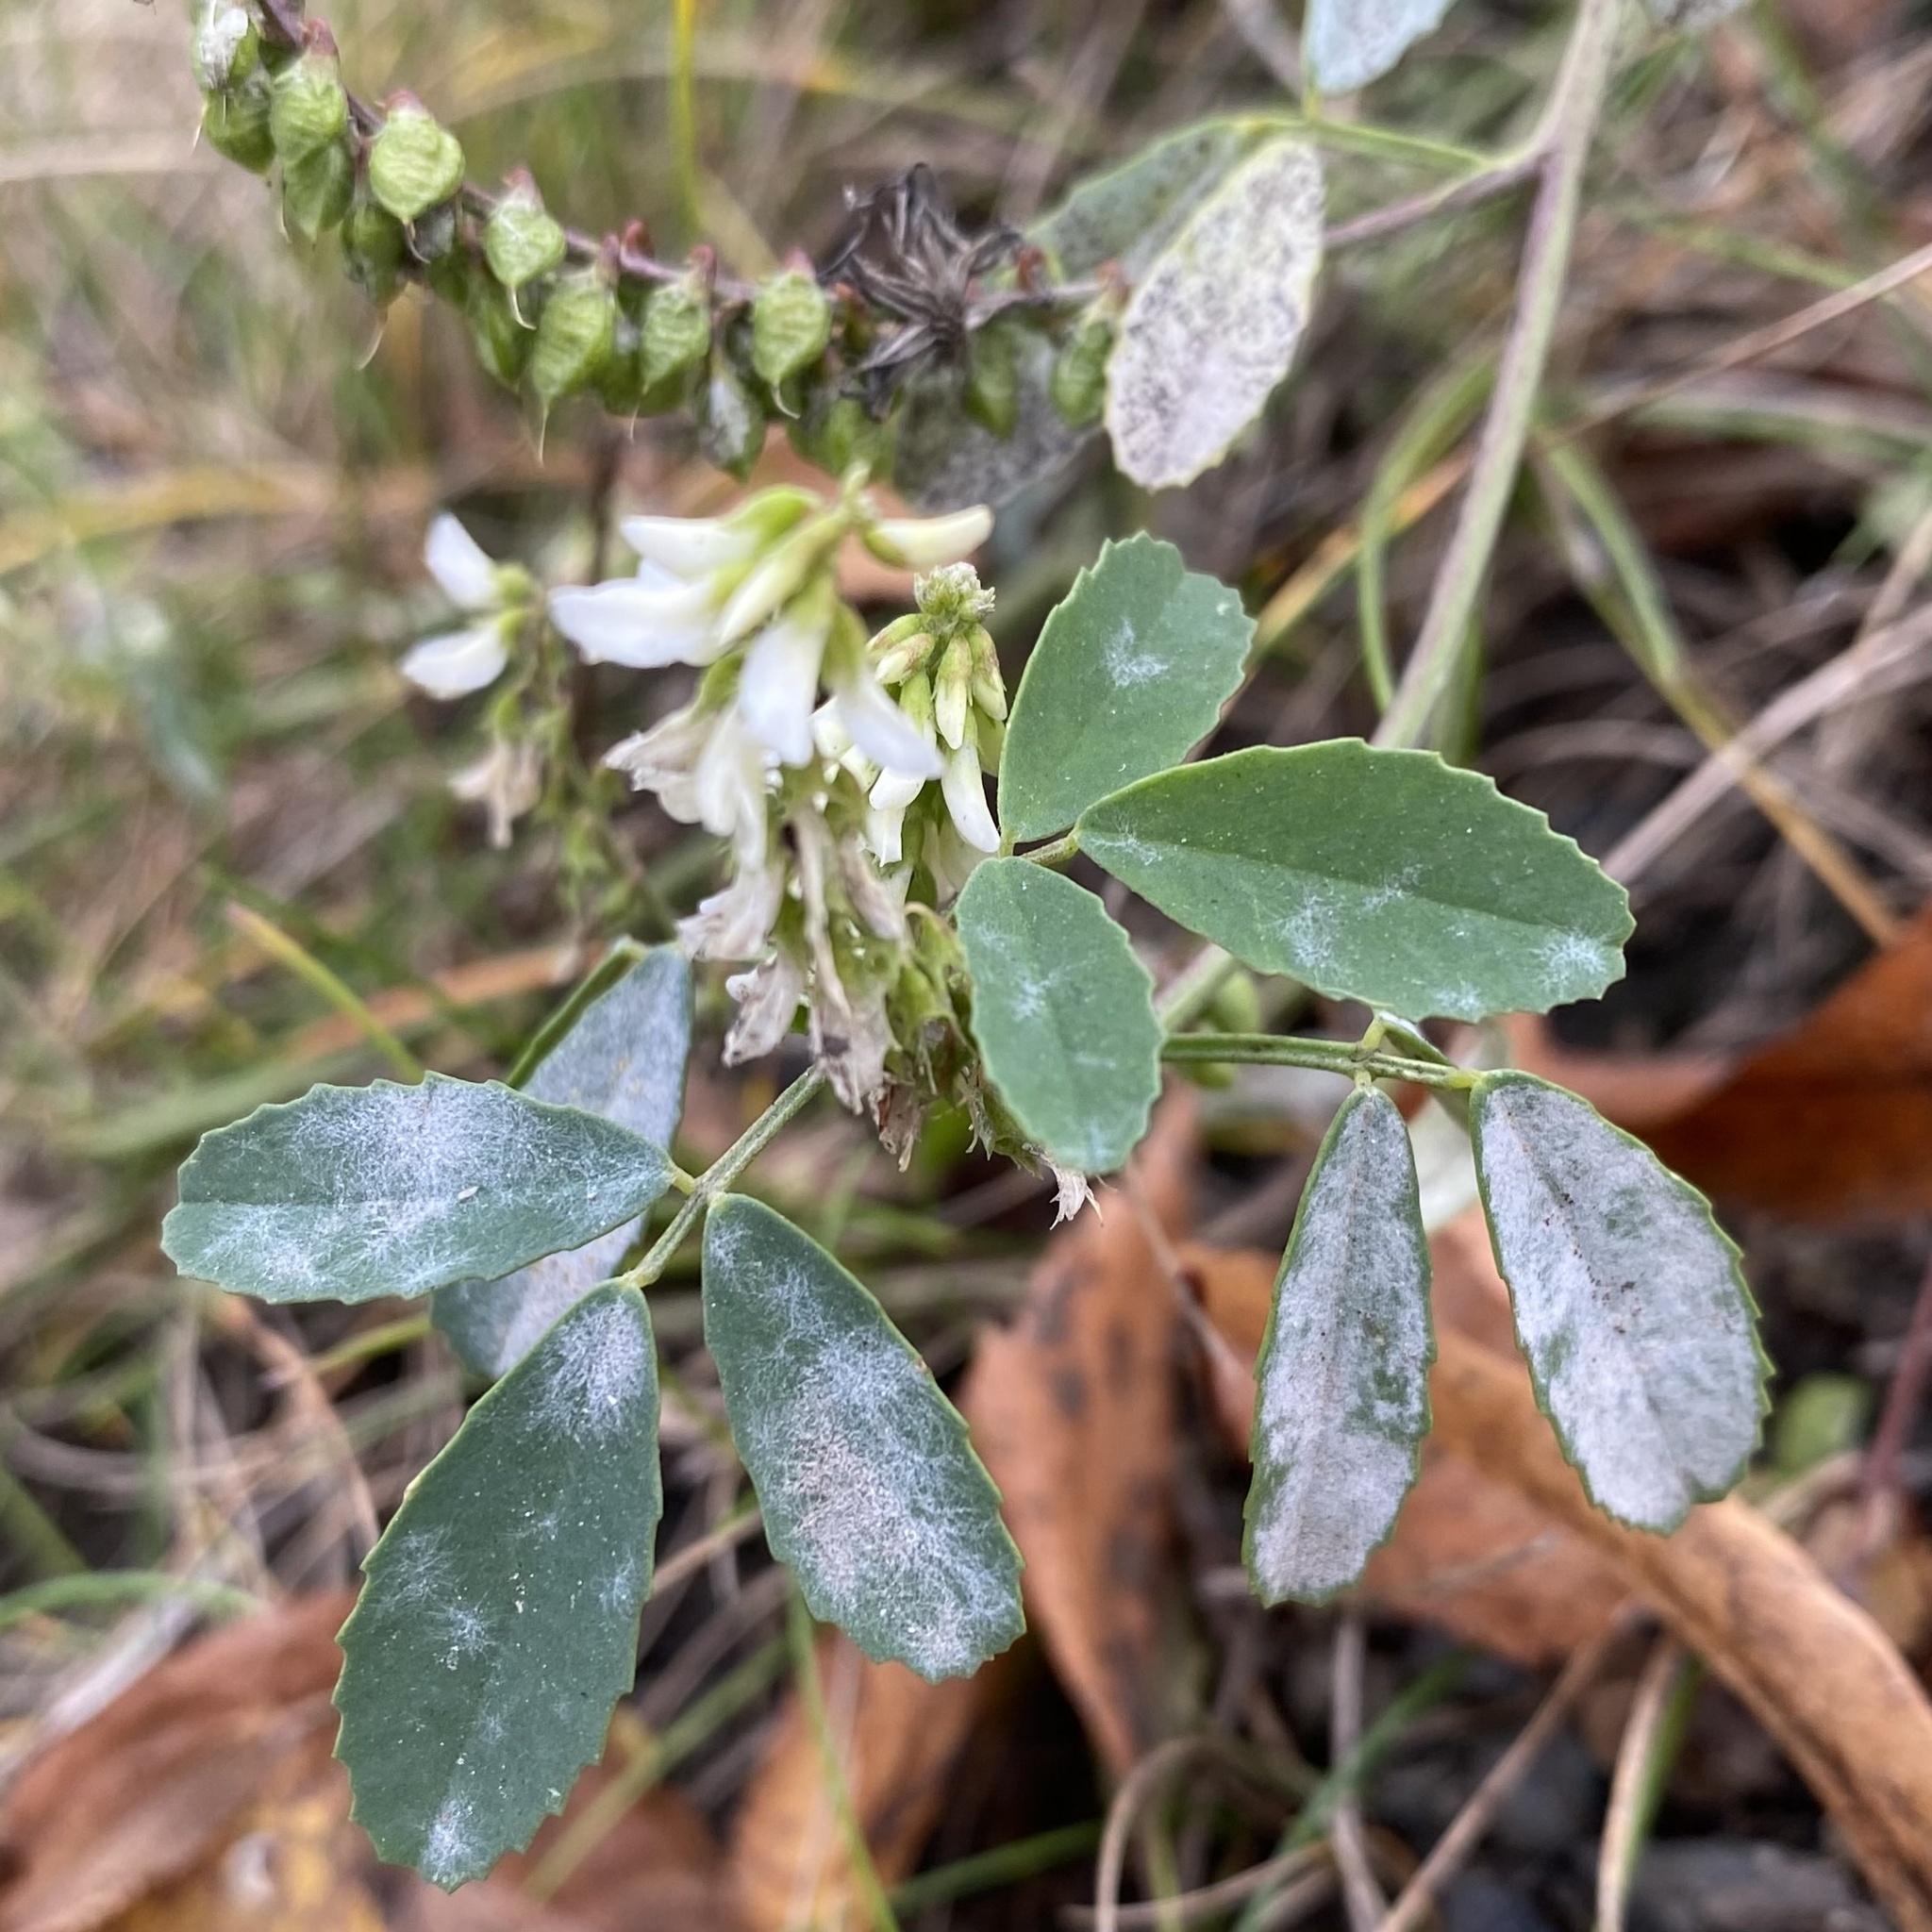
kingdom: Plantae
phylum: Tracheophyta
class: Magnoliopsida
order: Fabales
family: Fabaceae
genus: Melilotus
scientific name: Melilotus albus
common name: White melilot
